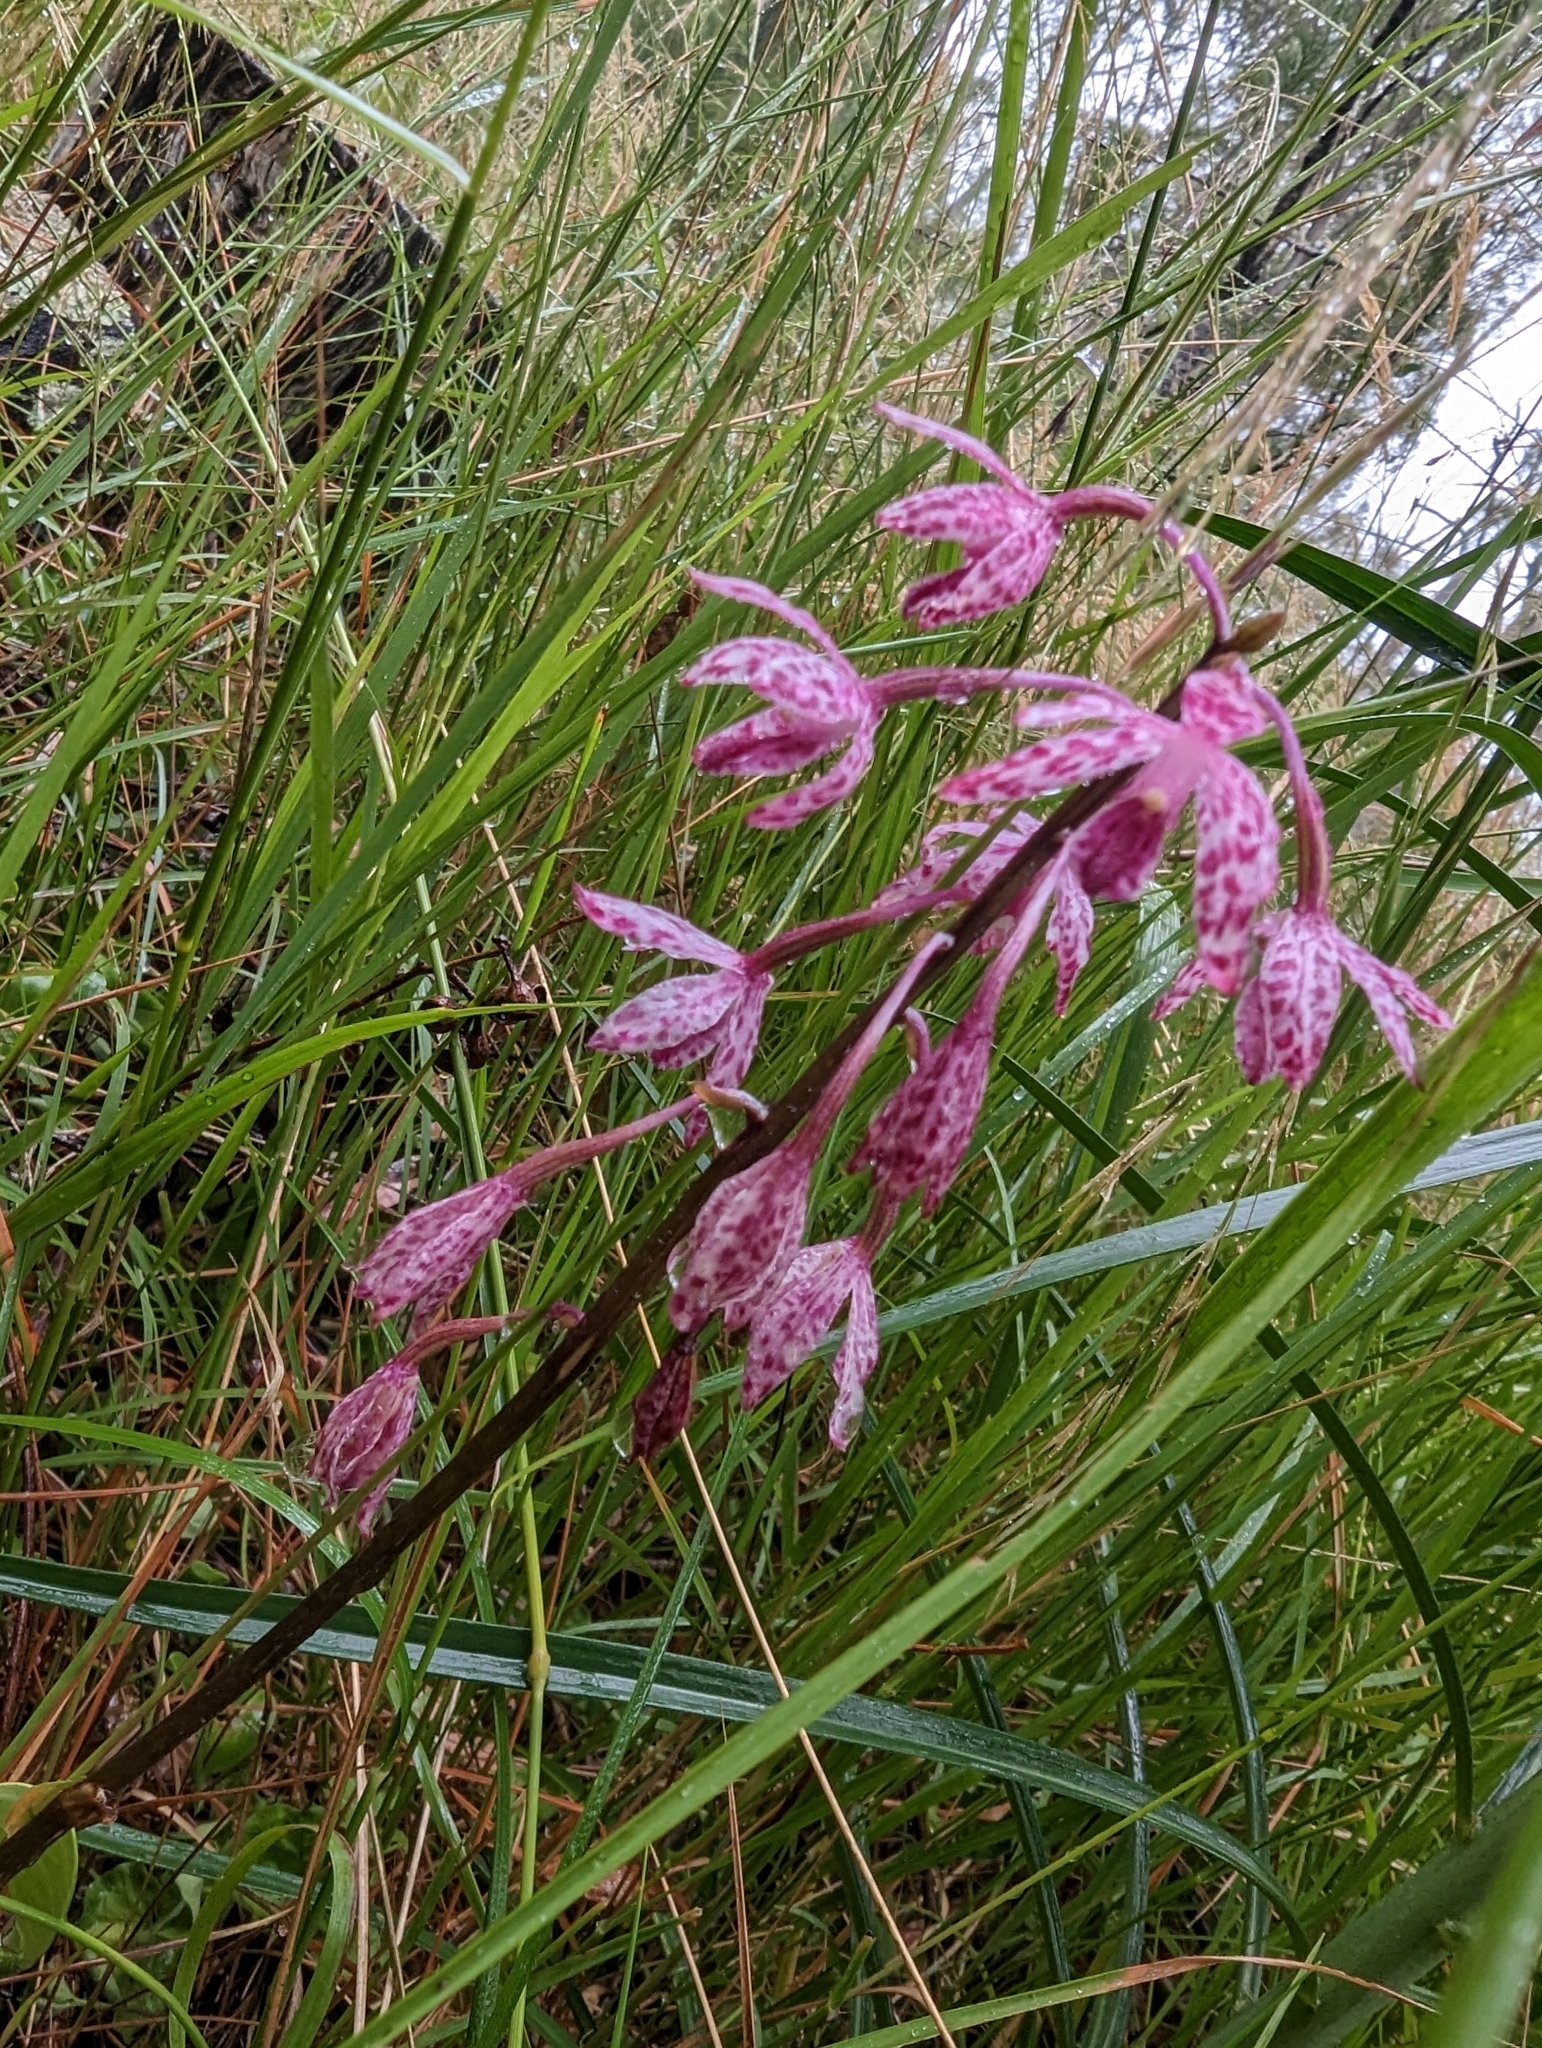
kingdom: Plantae
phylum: Tracheophyta
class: Liliopsida
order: Asparagales
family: Orchidaceae
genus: Dipodium
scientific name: Dipodium squamatum
